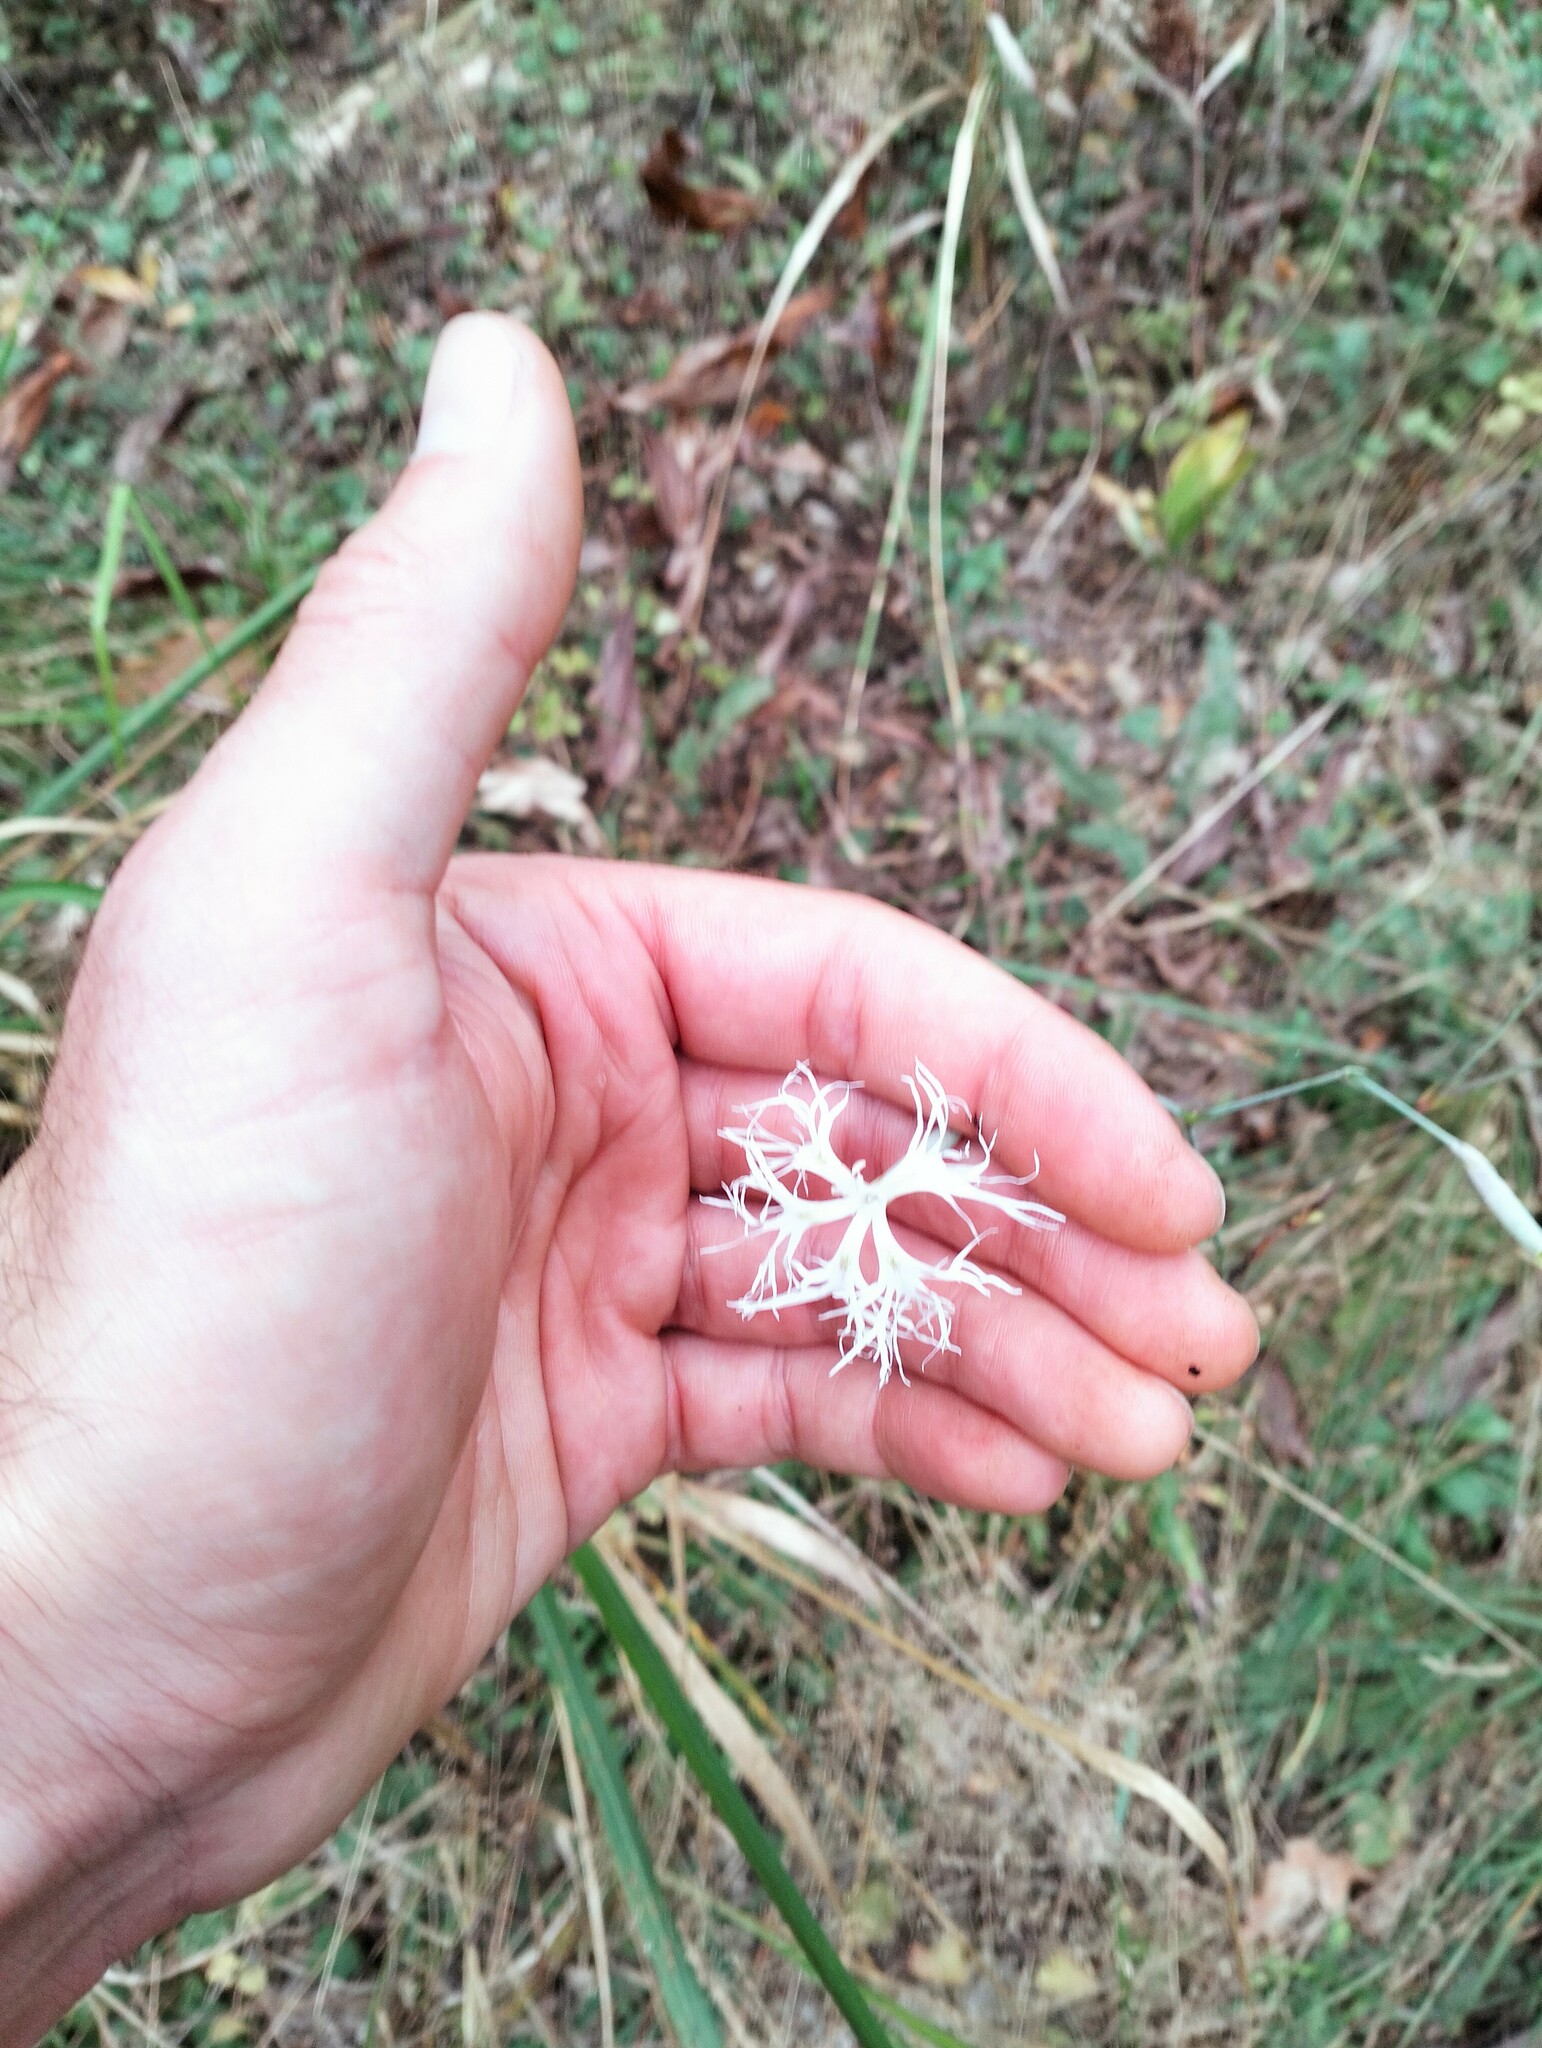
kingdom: Plantae
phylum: Tracheophyta
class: Magnoliopsida
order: Caryophyllales
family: Caryophyllaceae
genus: Dianthus
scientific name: Dianthus superbus
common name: Fringed pink
